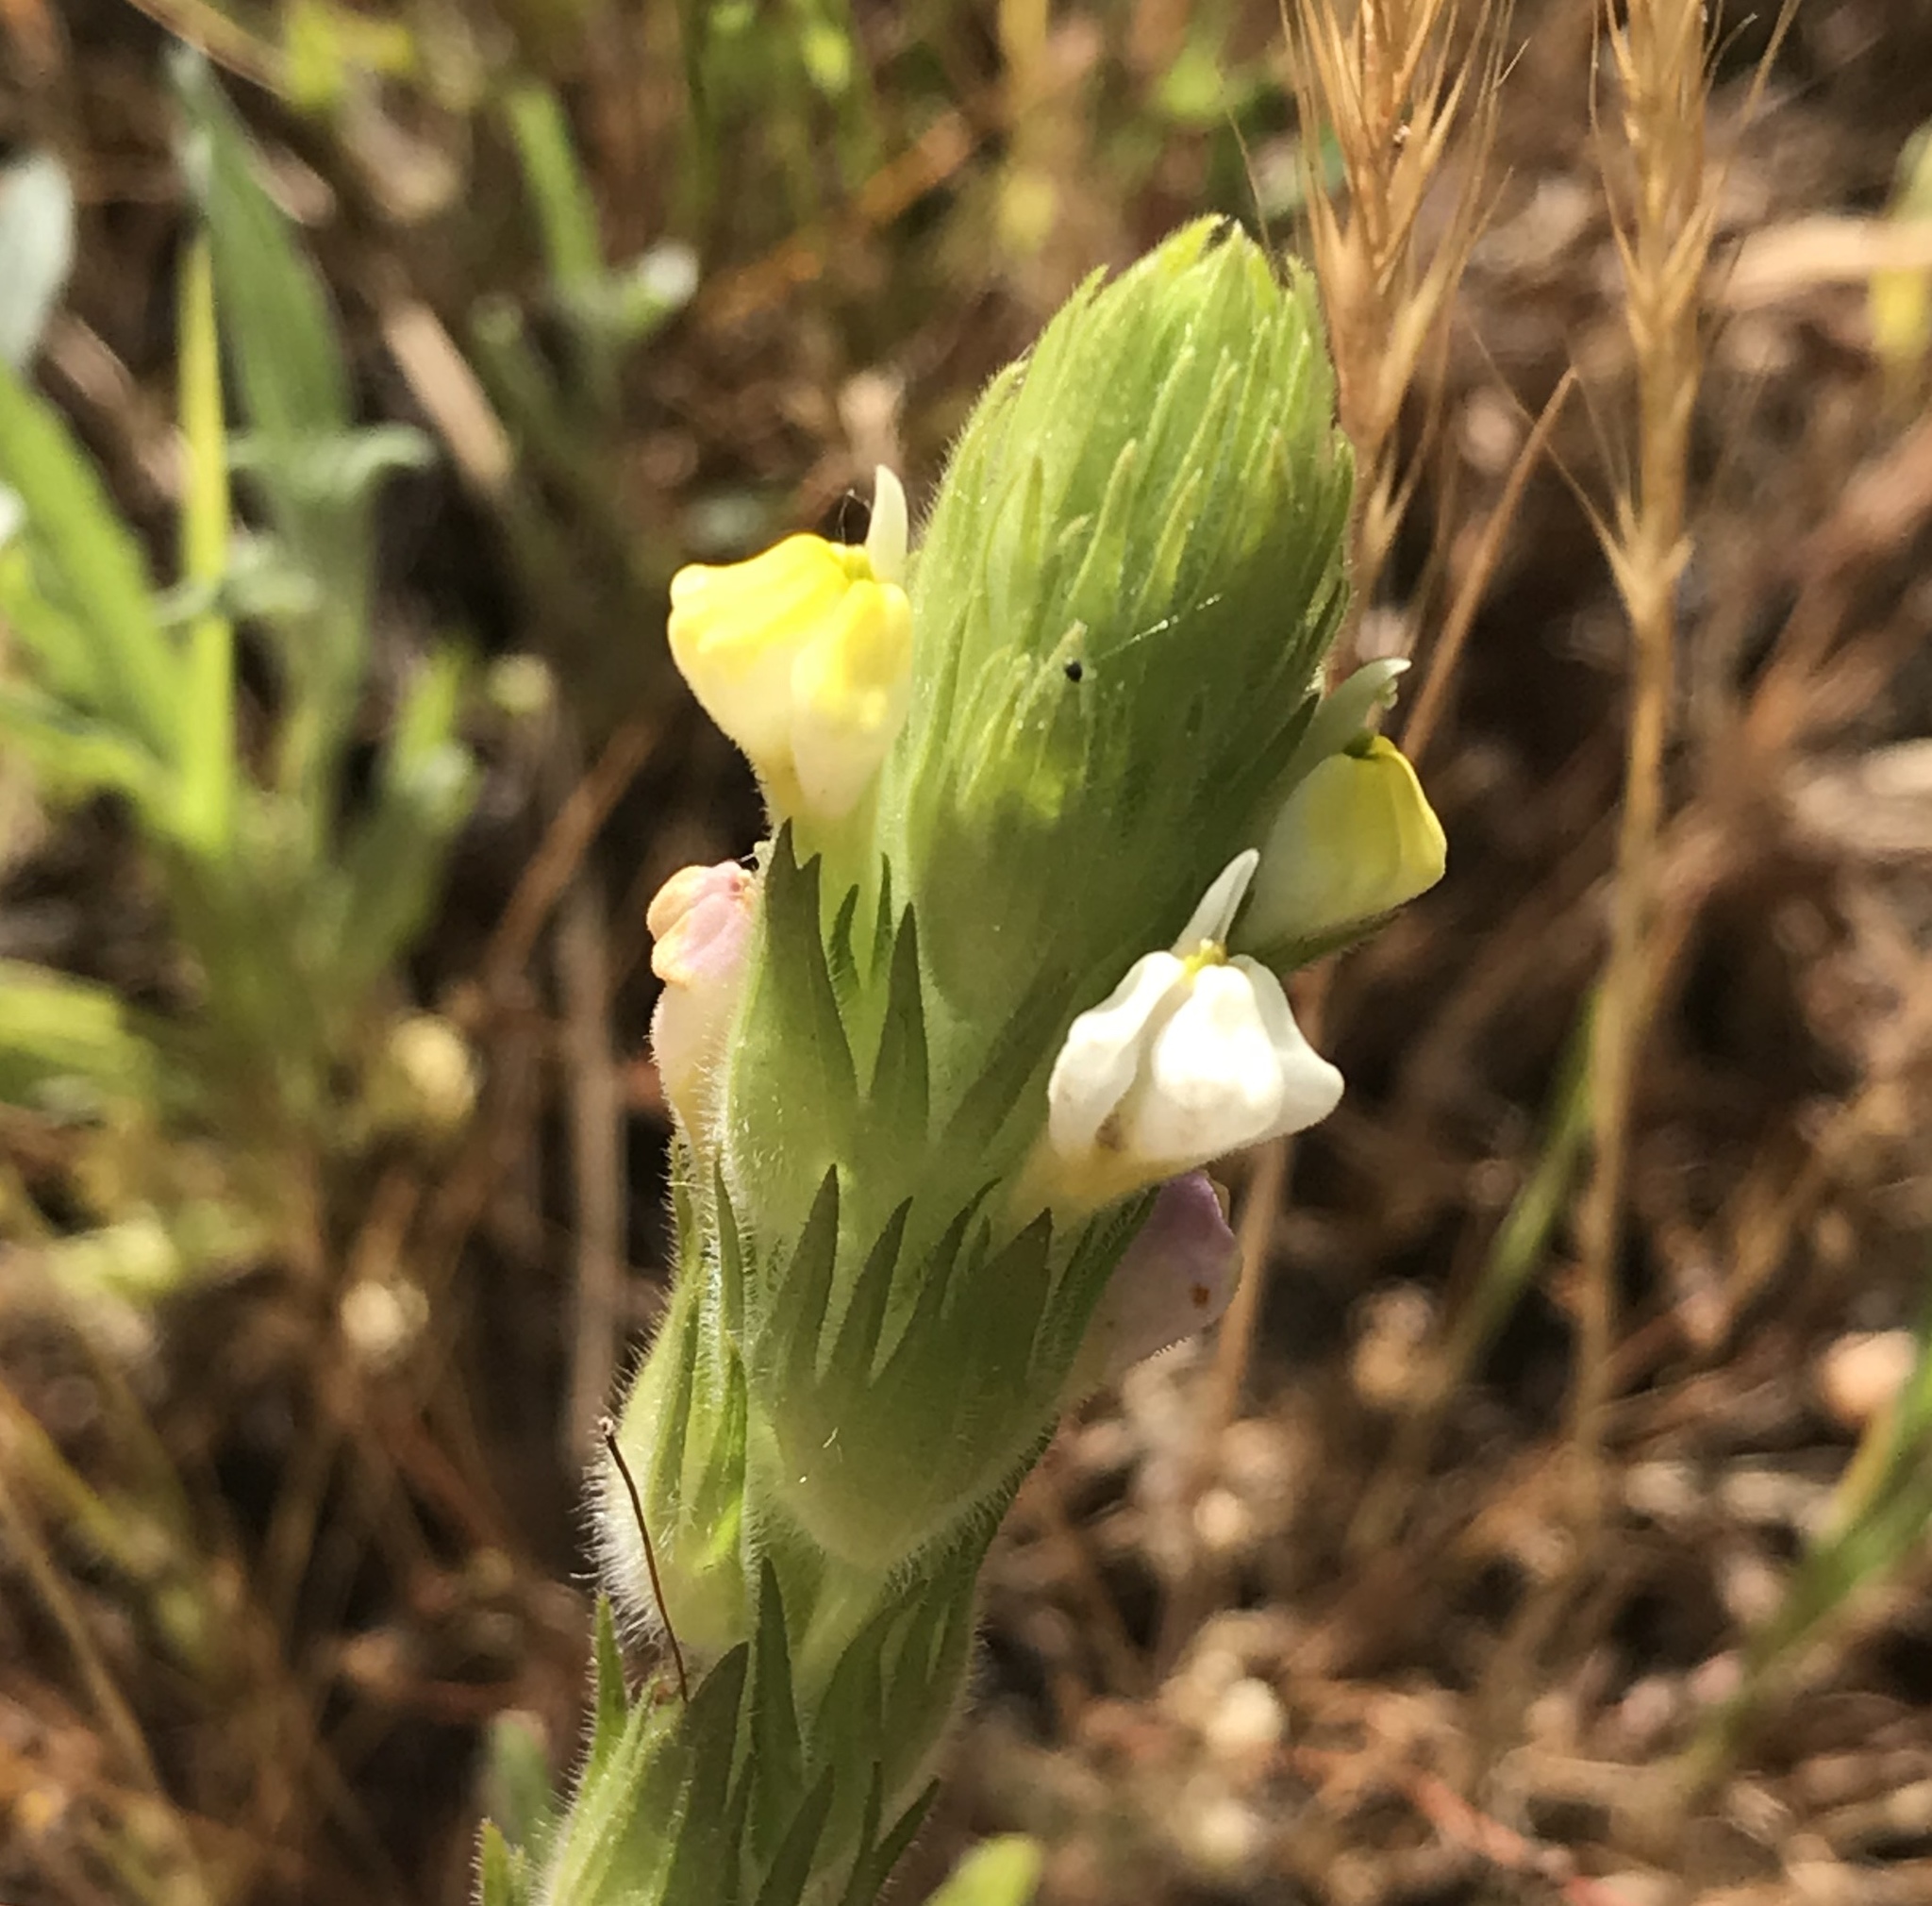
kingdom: Plantae
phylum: Tracheophyta
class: Magnoliopsida
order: Lamiales
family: Orobanchaceae
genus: Castilleja
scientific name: Castilleja rubicundula
